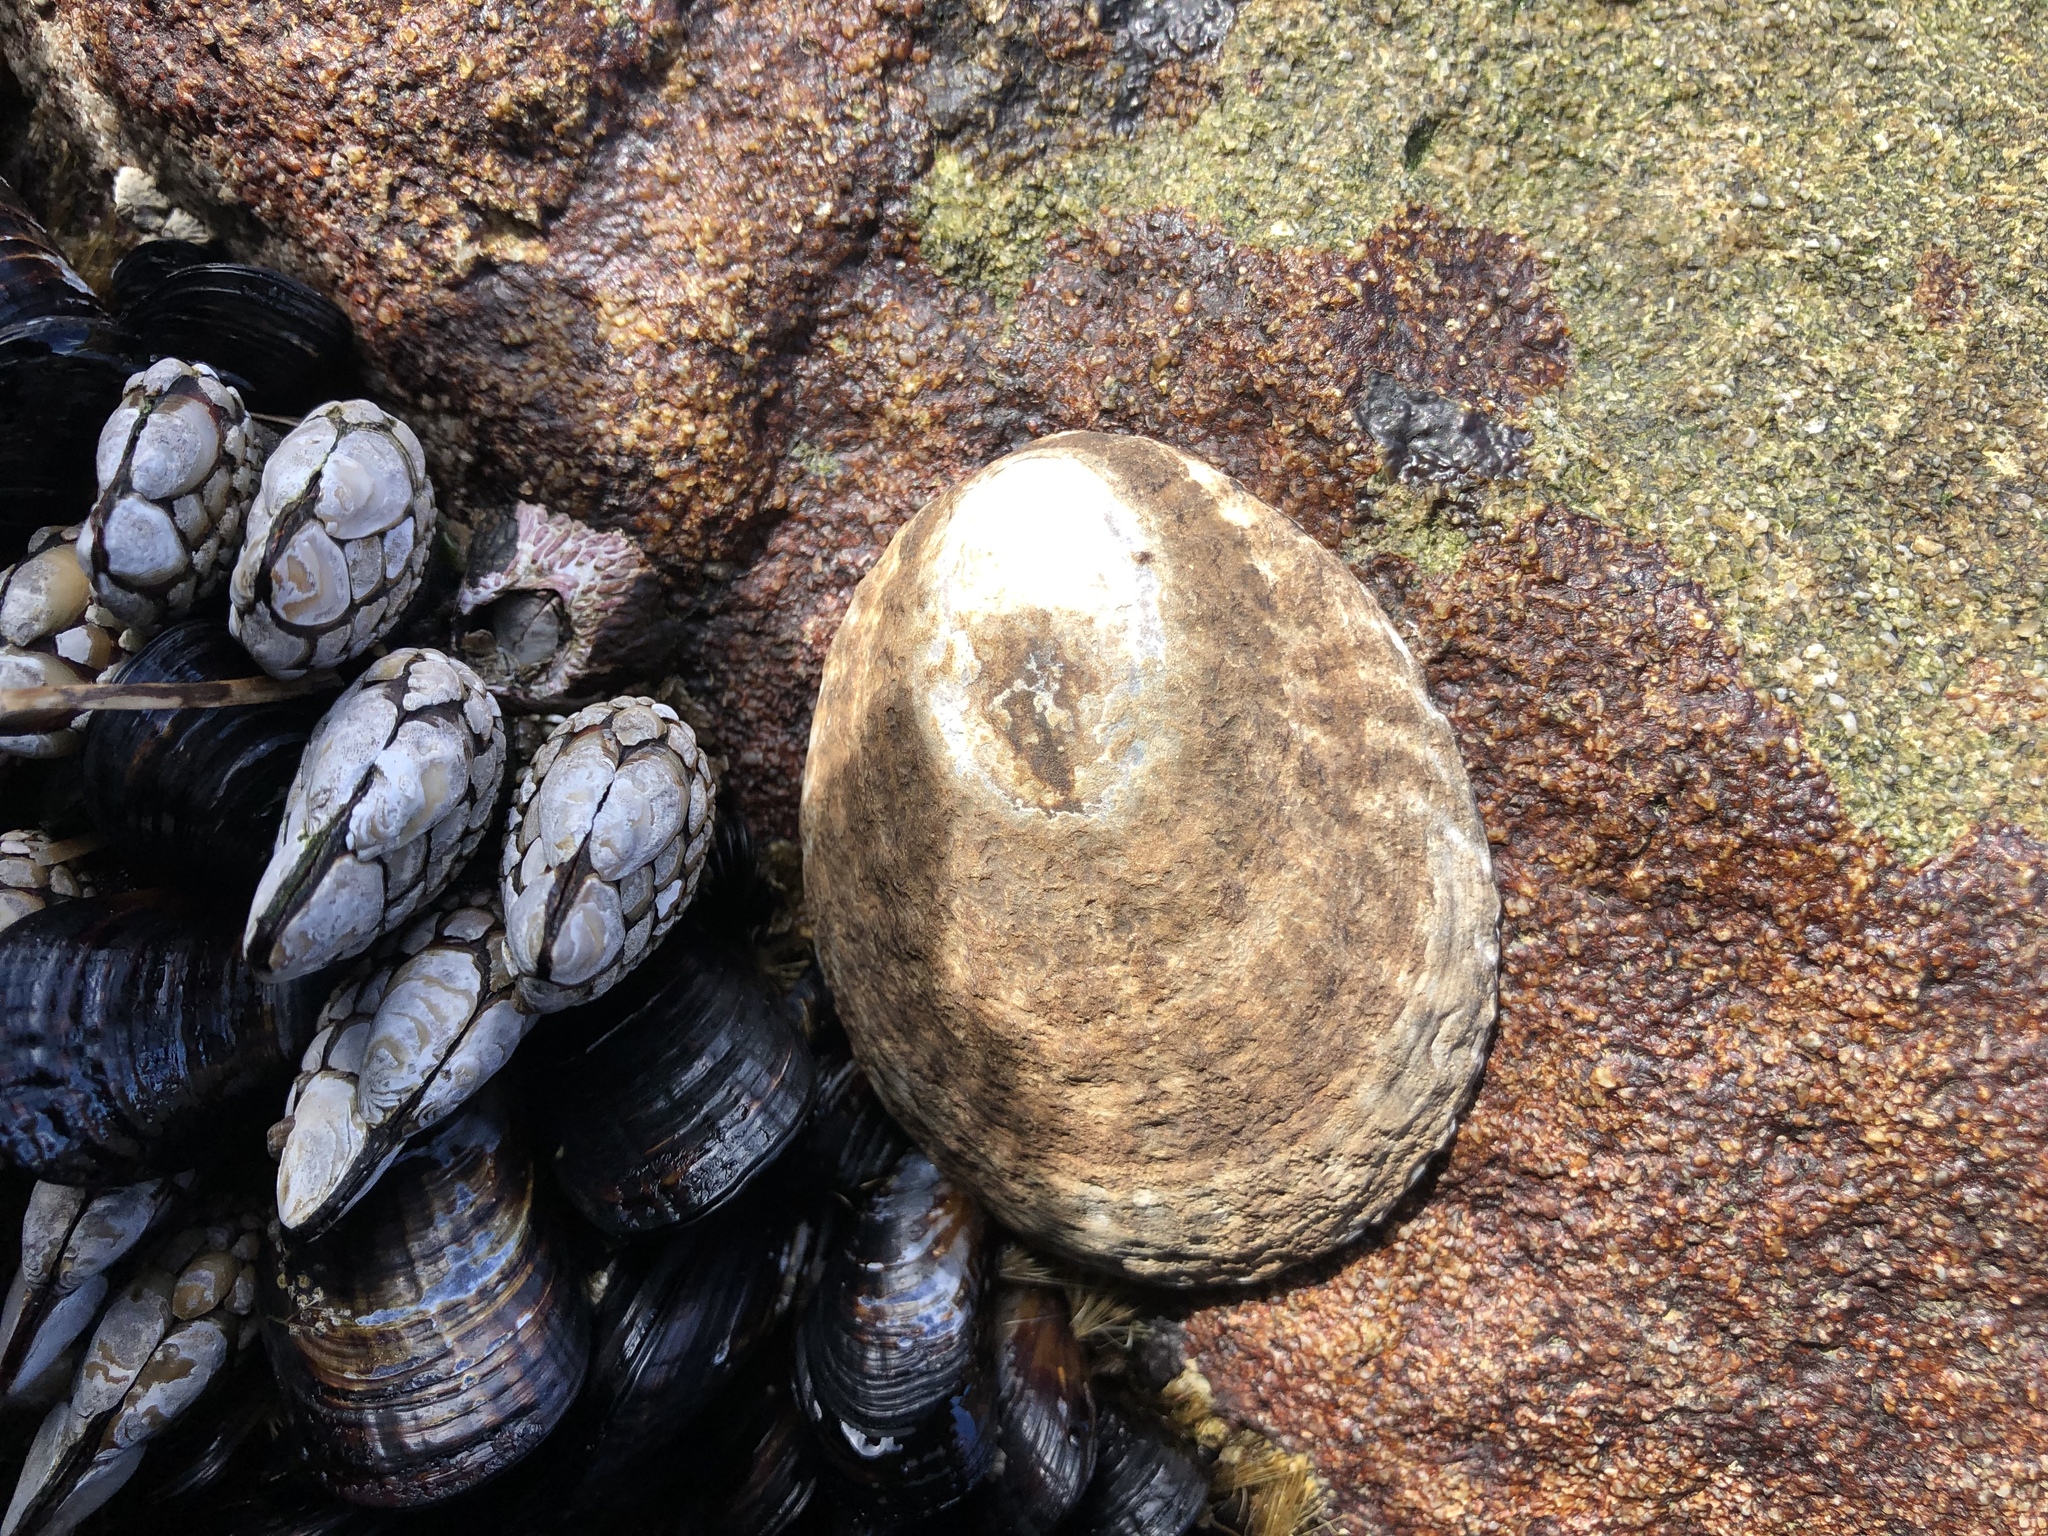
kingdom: Animalia
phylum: Mollusca
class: Gastropoda
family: Lottiidae
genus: Lottia
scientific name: Lottia gigantea
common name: Owl limpet
